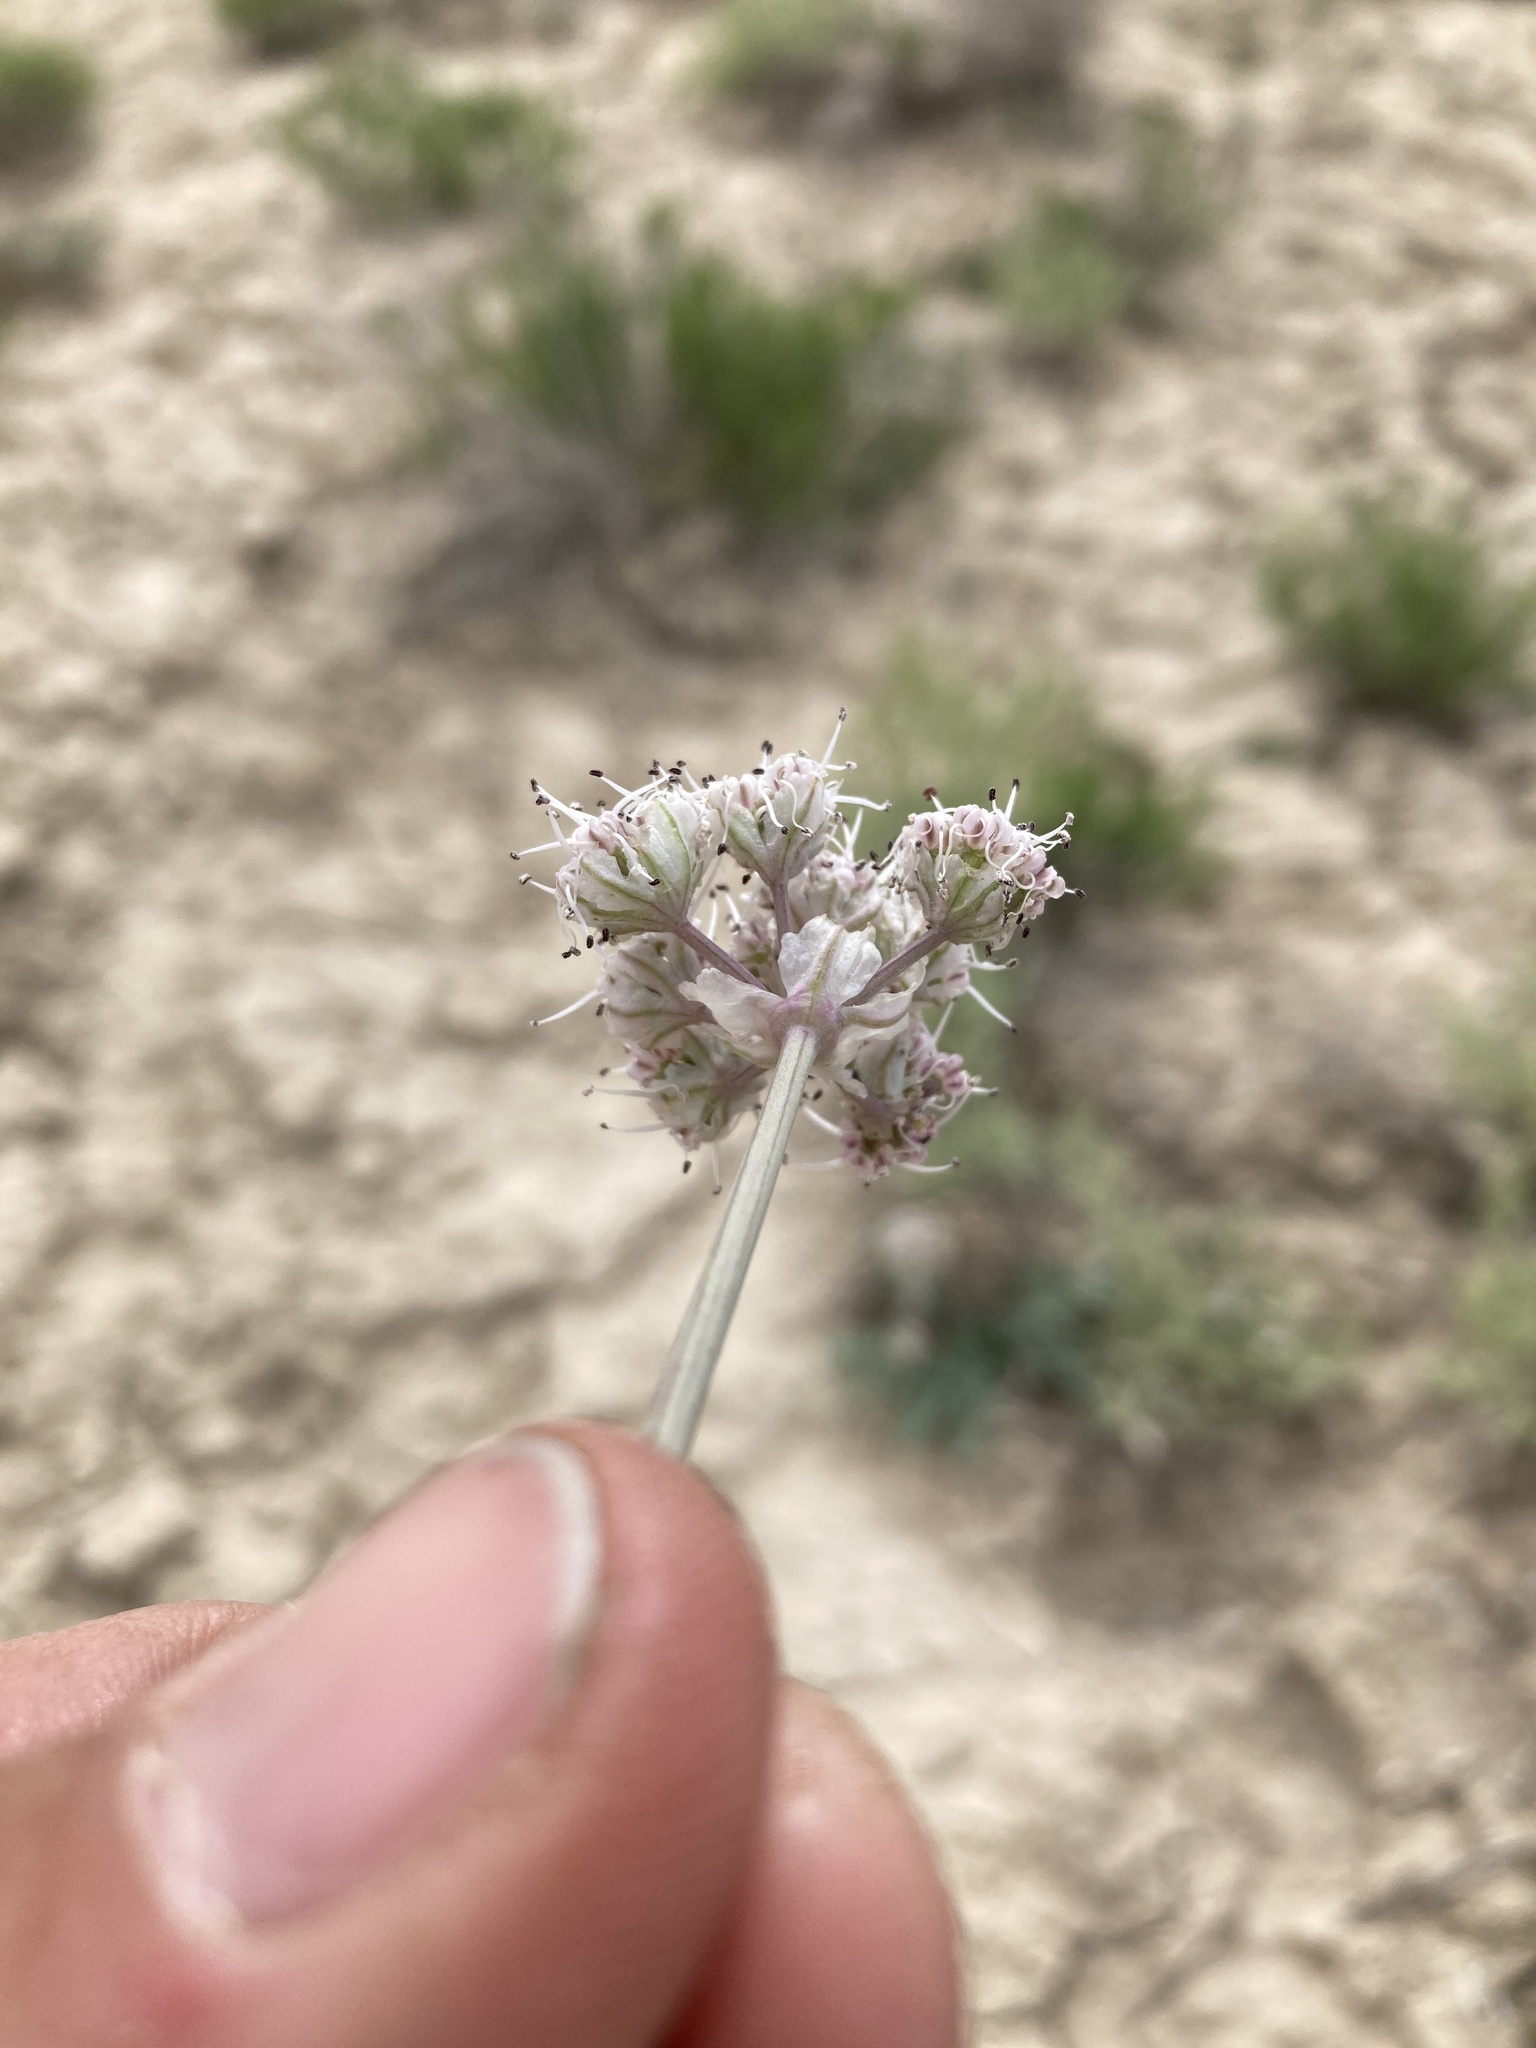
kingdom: Plantae
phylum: Tracheophyta
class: Magnoliopsida
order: Apiales
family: Apiaceae
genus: Vesper
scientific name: Vesper bulbosus
